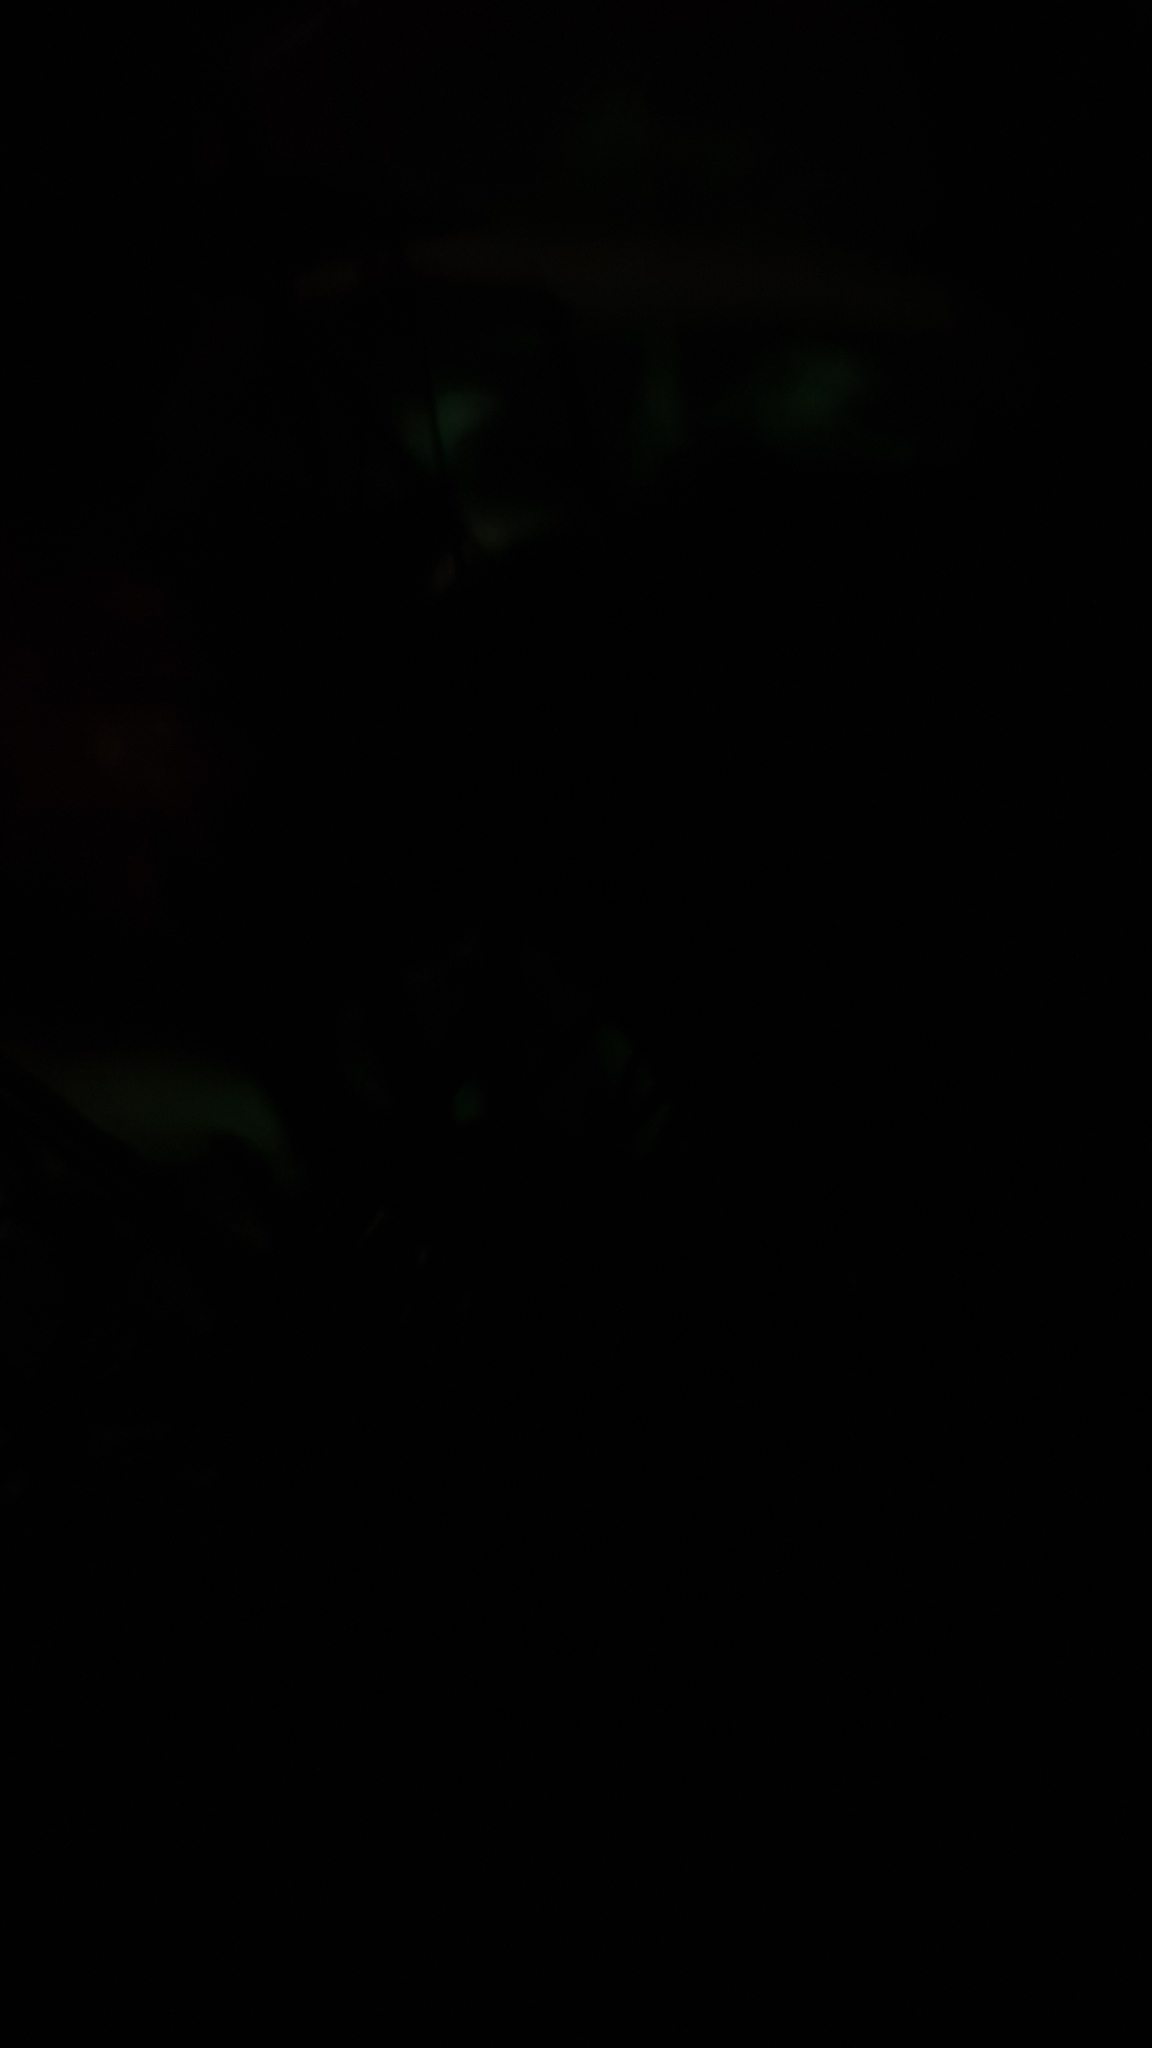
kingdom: Fungi
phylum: Basidiomycota
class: Agaricomycetes
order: Agaricales
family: Omphalotaceae
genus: Omphalotus
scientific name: Omphalotus nidiformis
